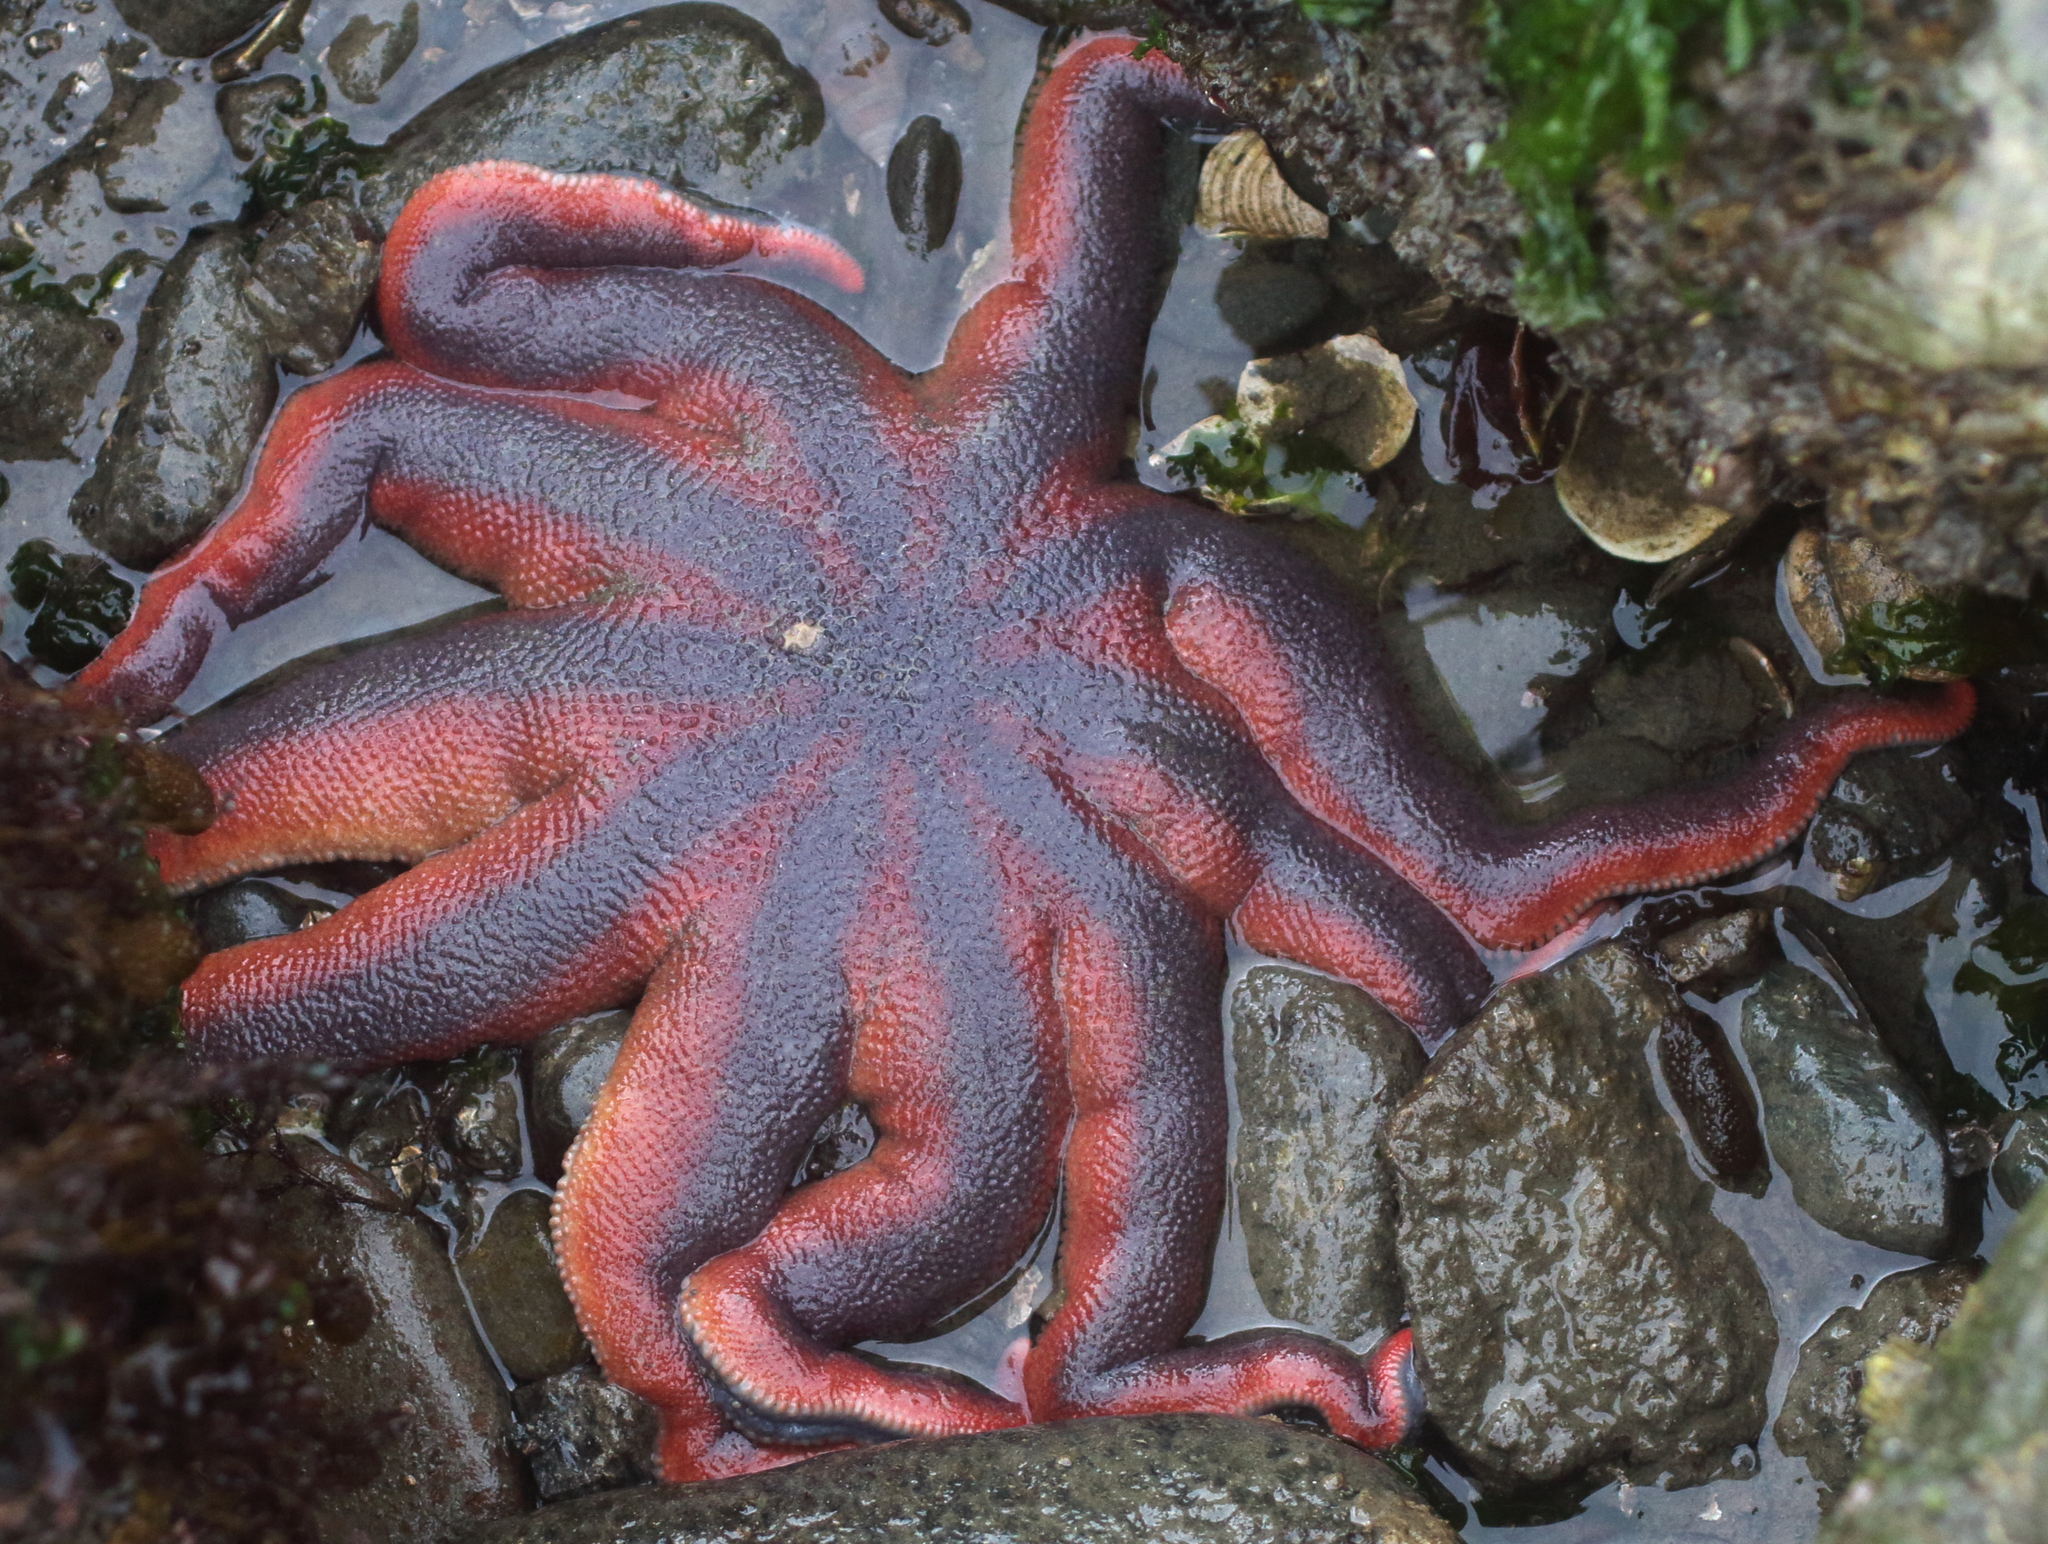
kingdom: Animalia
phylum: Echinodermata
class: Asteroidea
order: Valvatida
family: Solasteridae
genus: Solaster
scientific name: Solaster pacificus
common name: Northern sunstar
